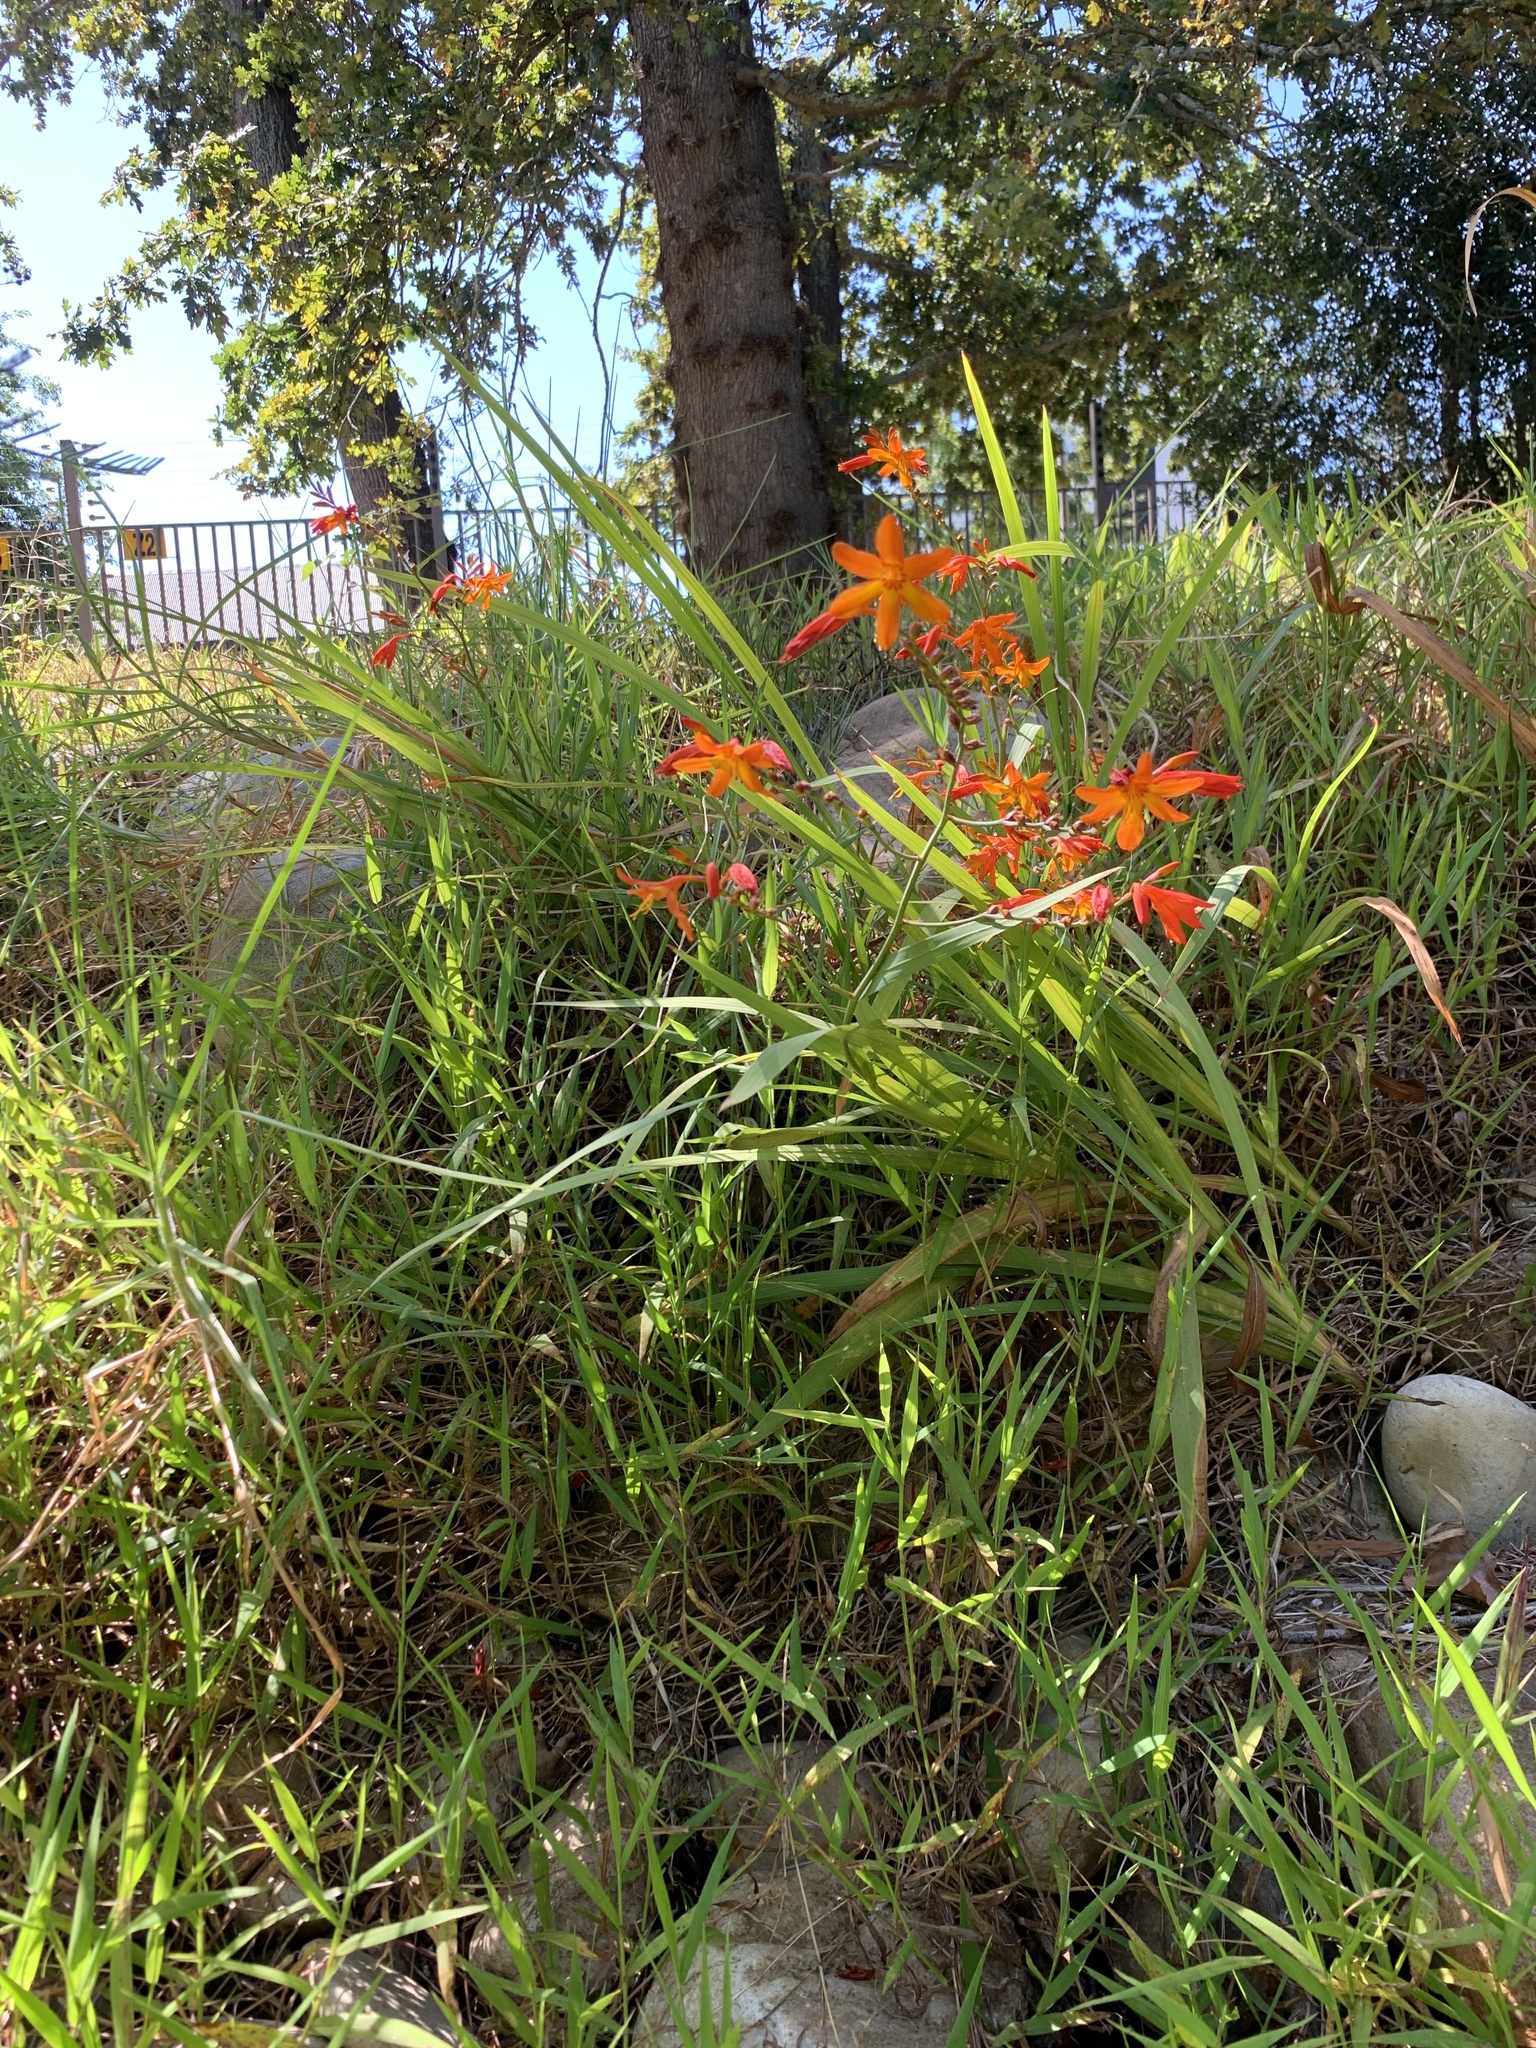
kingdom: Plantae
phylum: Tracheophyta
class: Liliopsida
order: Asparagales
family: Iridaceae
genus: Crocosmia
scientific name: Crocosmia crocosmiiflora
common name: Montbretia
